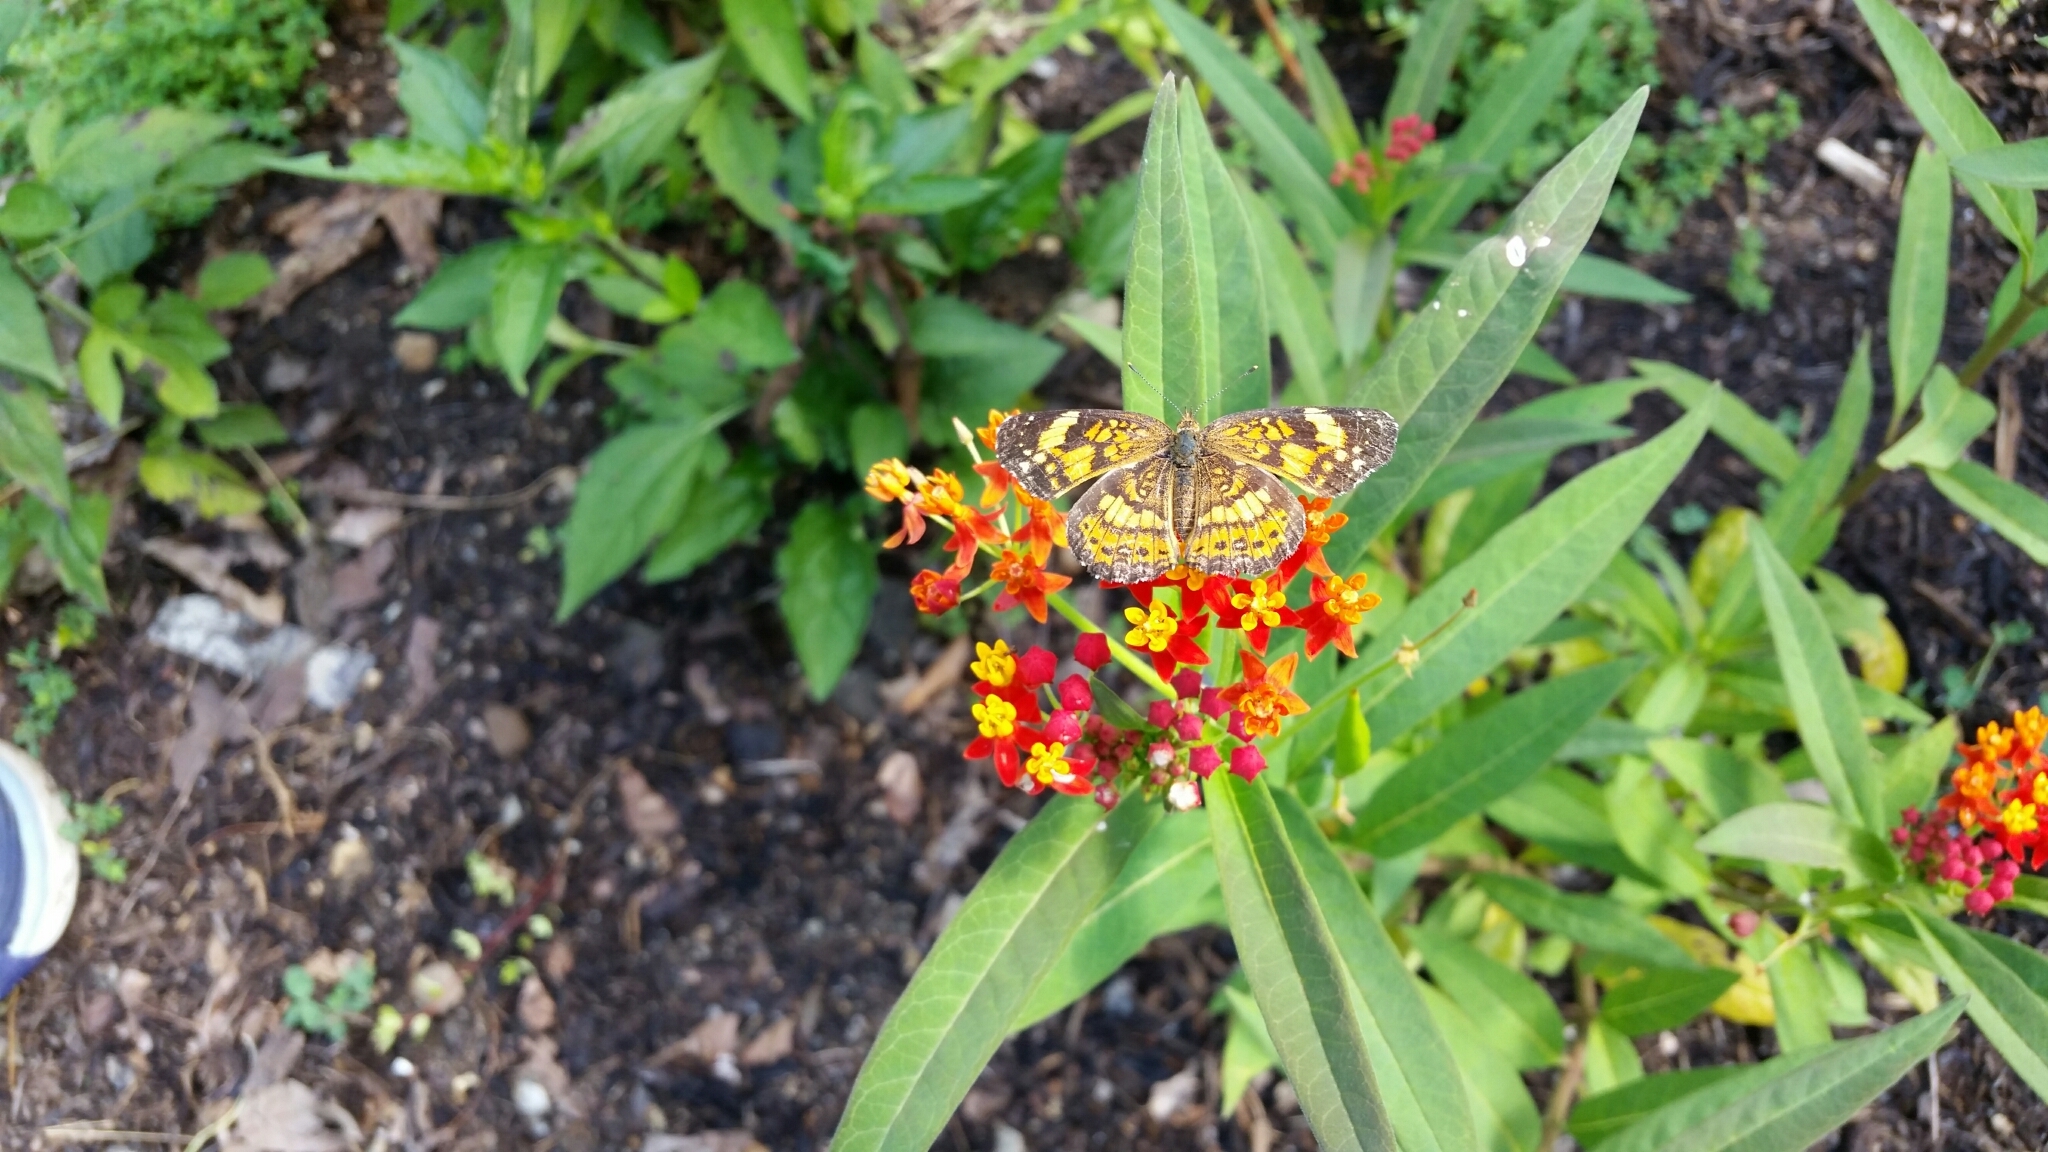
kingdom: Animalia
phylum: Arthropoda
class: Insecta
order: Lepidoptera
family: Nymphalidae
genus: Chlosyne
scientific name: Chlosyne nycteis
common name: Silvery checkerspot
